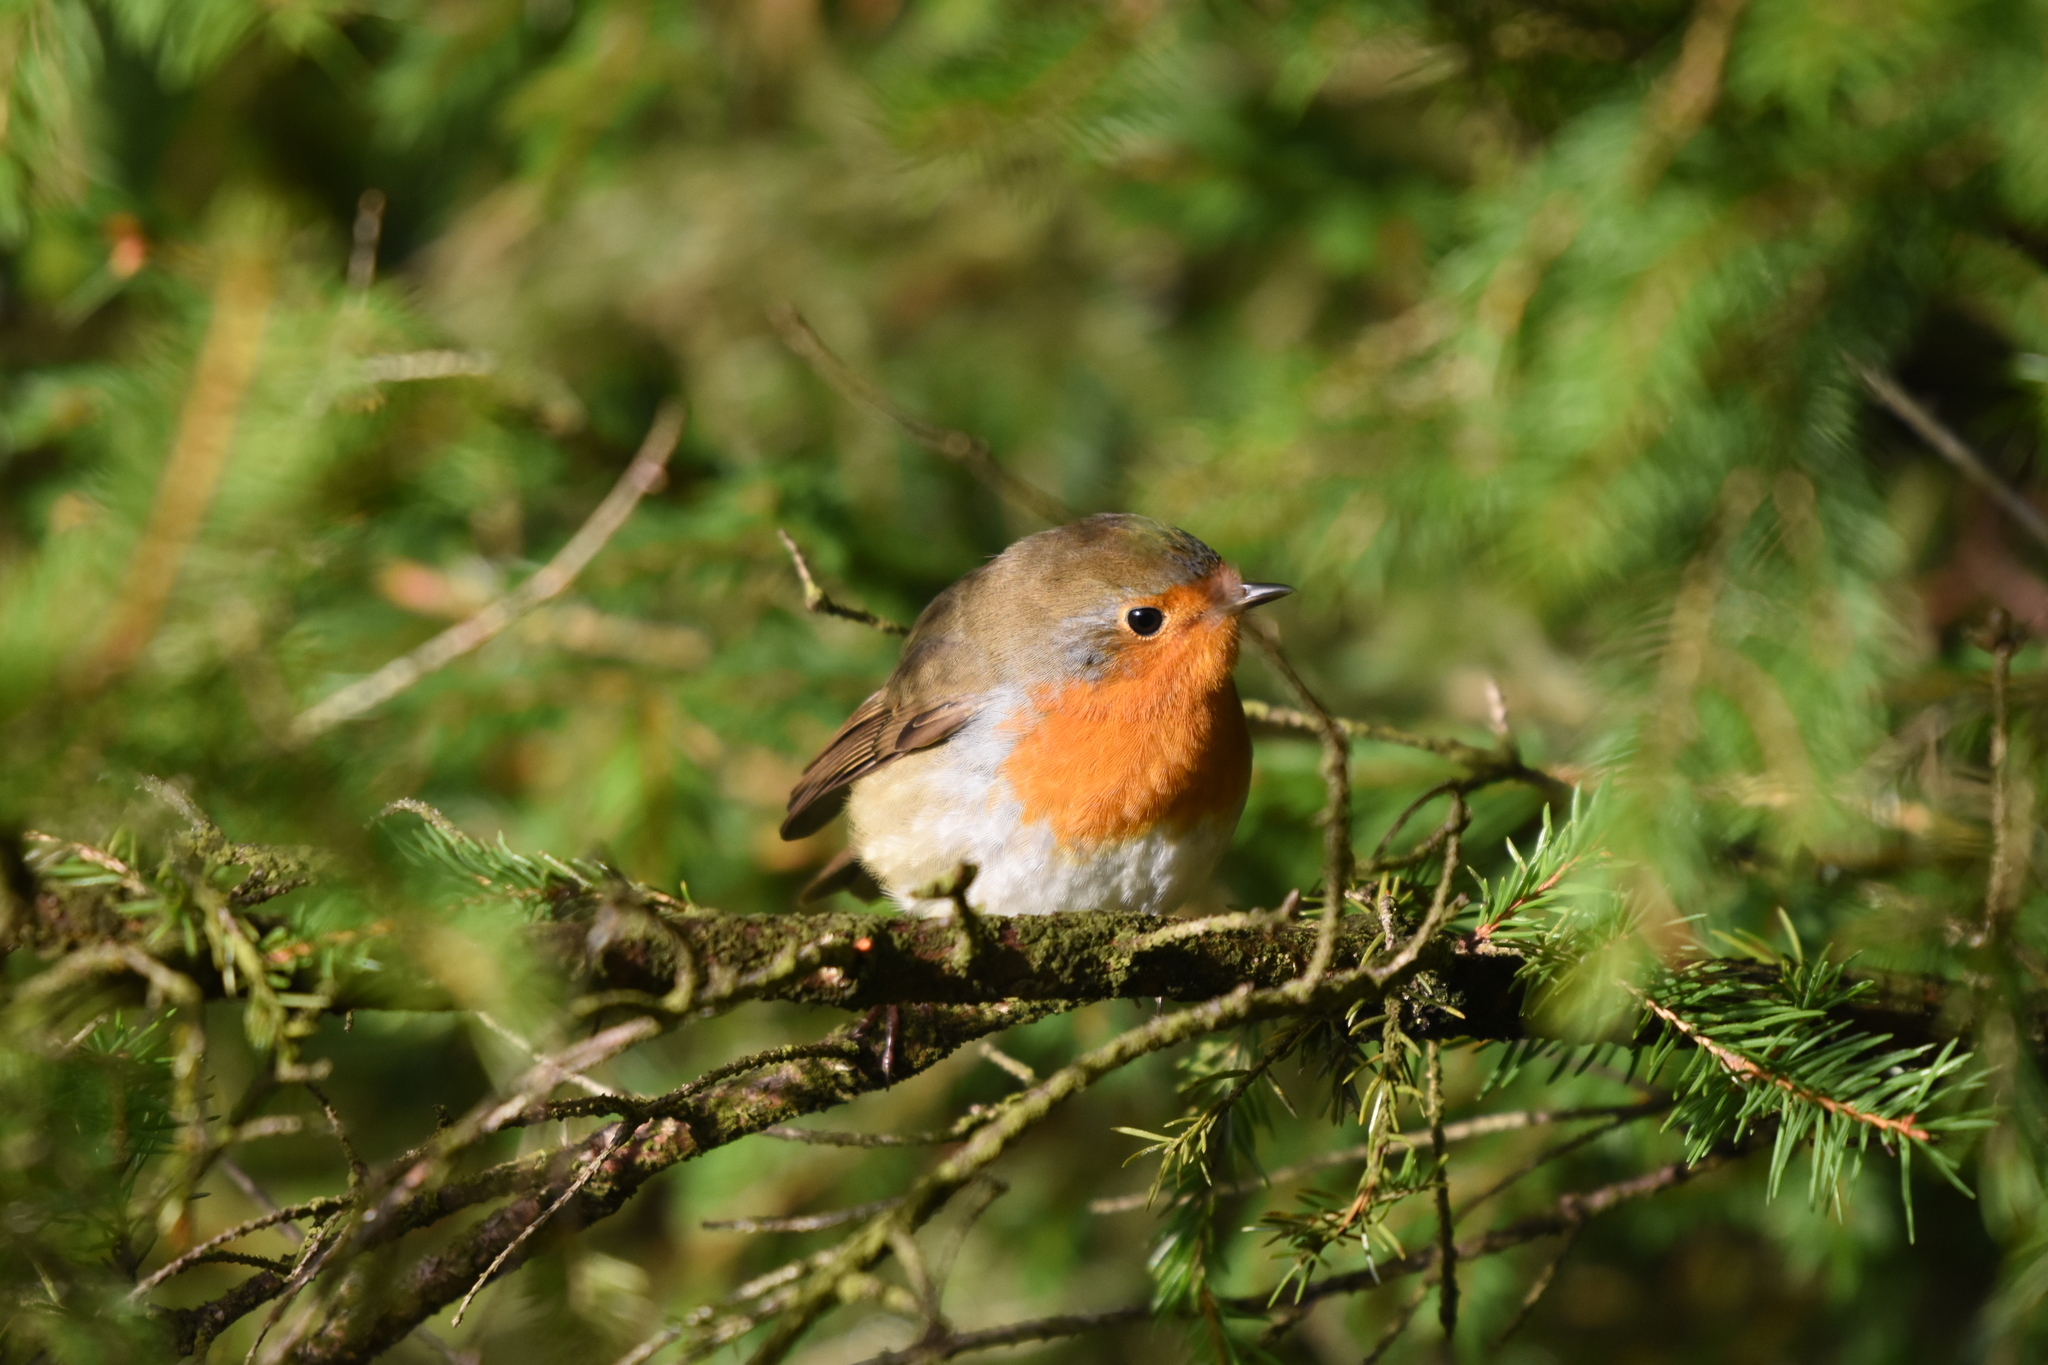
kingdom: Animalia
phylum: Chordata
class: Aves
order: Passeriformes
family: Muscicapidae
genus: Erithacus
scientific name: Erithacus rubecula
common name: European robin
